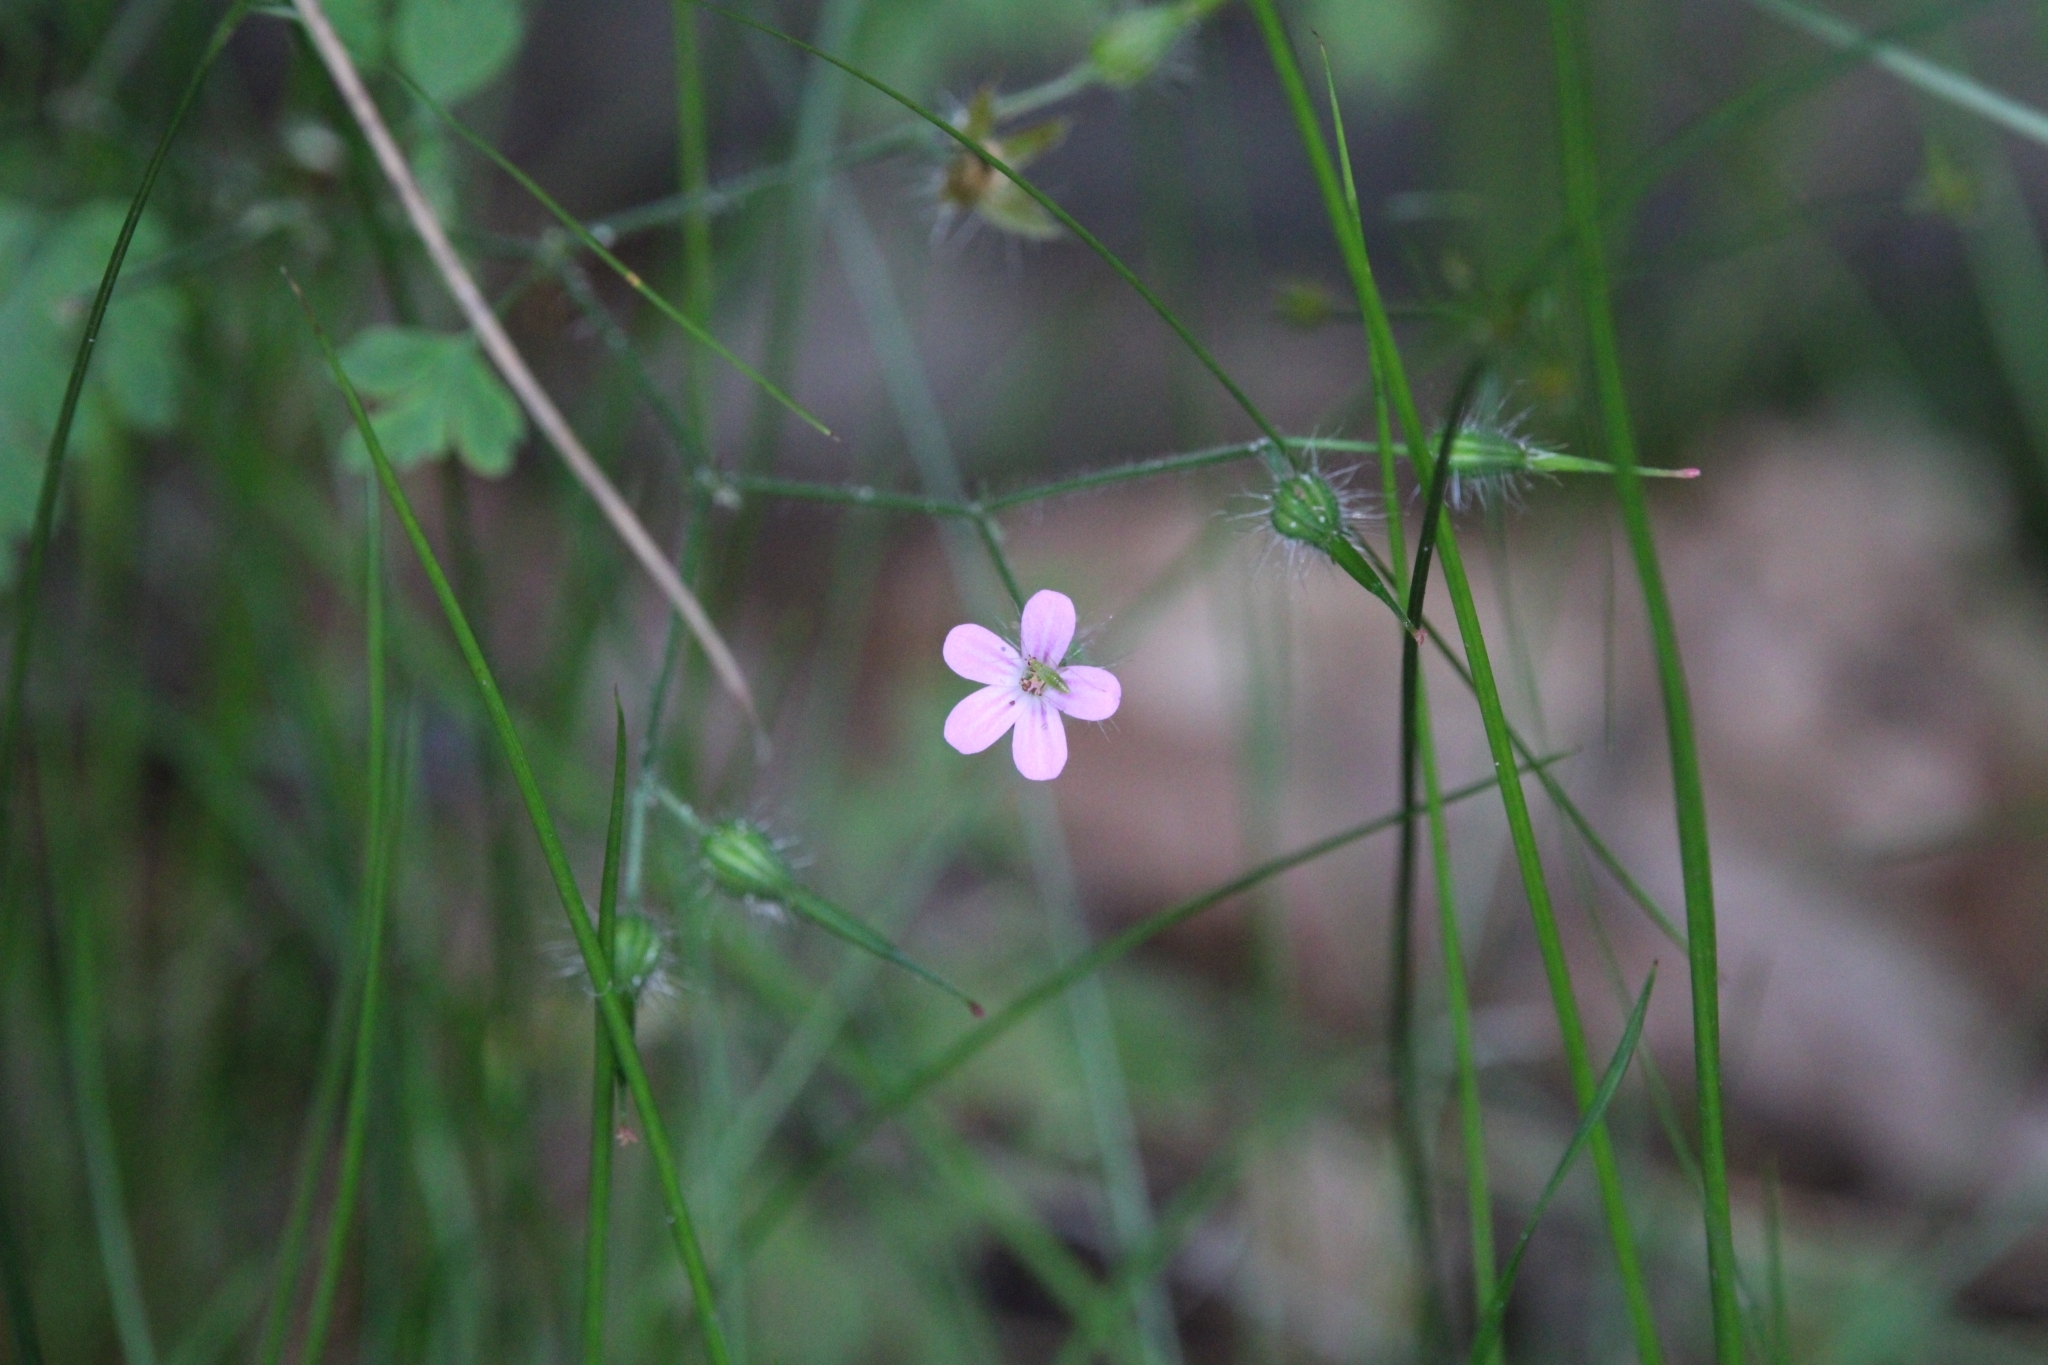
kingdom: Plantae
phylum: Tracheophyta
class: Magnoliopsida
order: Geraniales
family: Geraniaceae
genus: Geranium
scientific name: Geranium robertianum
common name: Herb-robert
